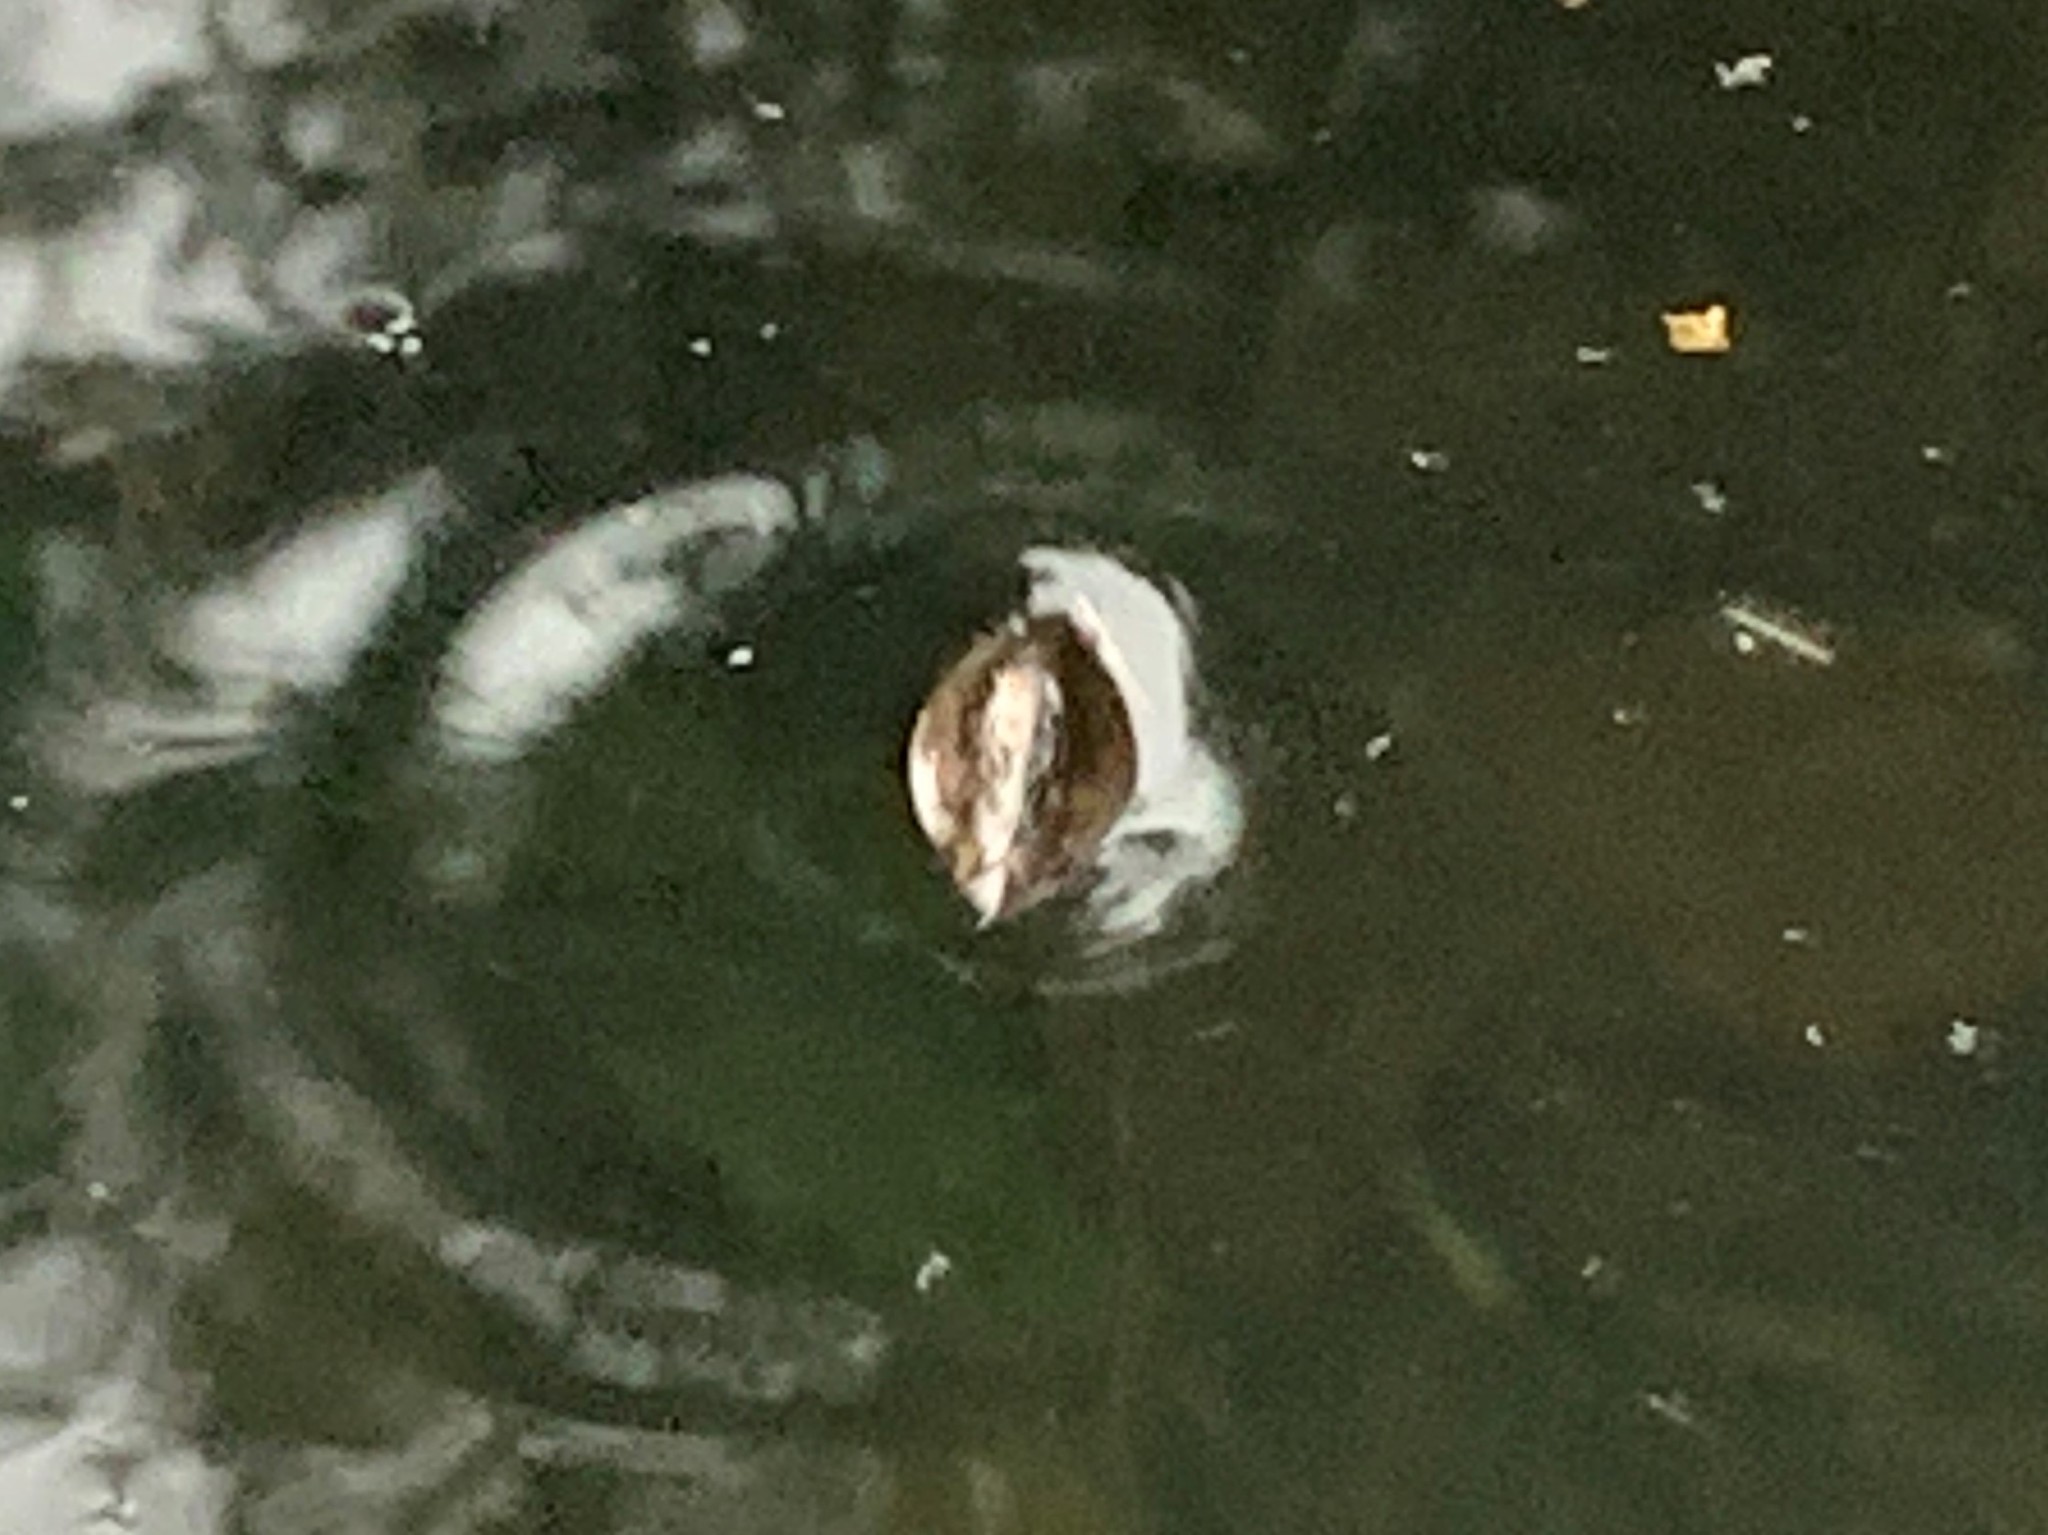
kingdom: Animalia
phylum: Arthropoda
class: Insecta
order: Coleoptera
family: Gyrinidae
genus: Dineutus
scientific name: Dineutus
